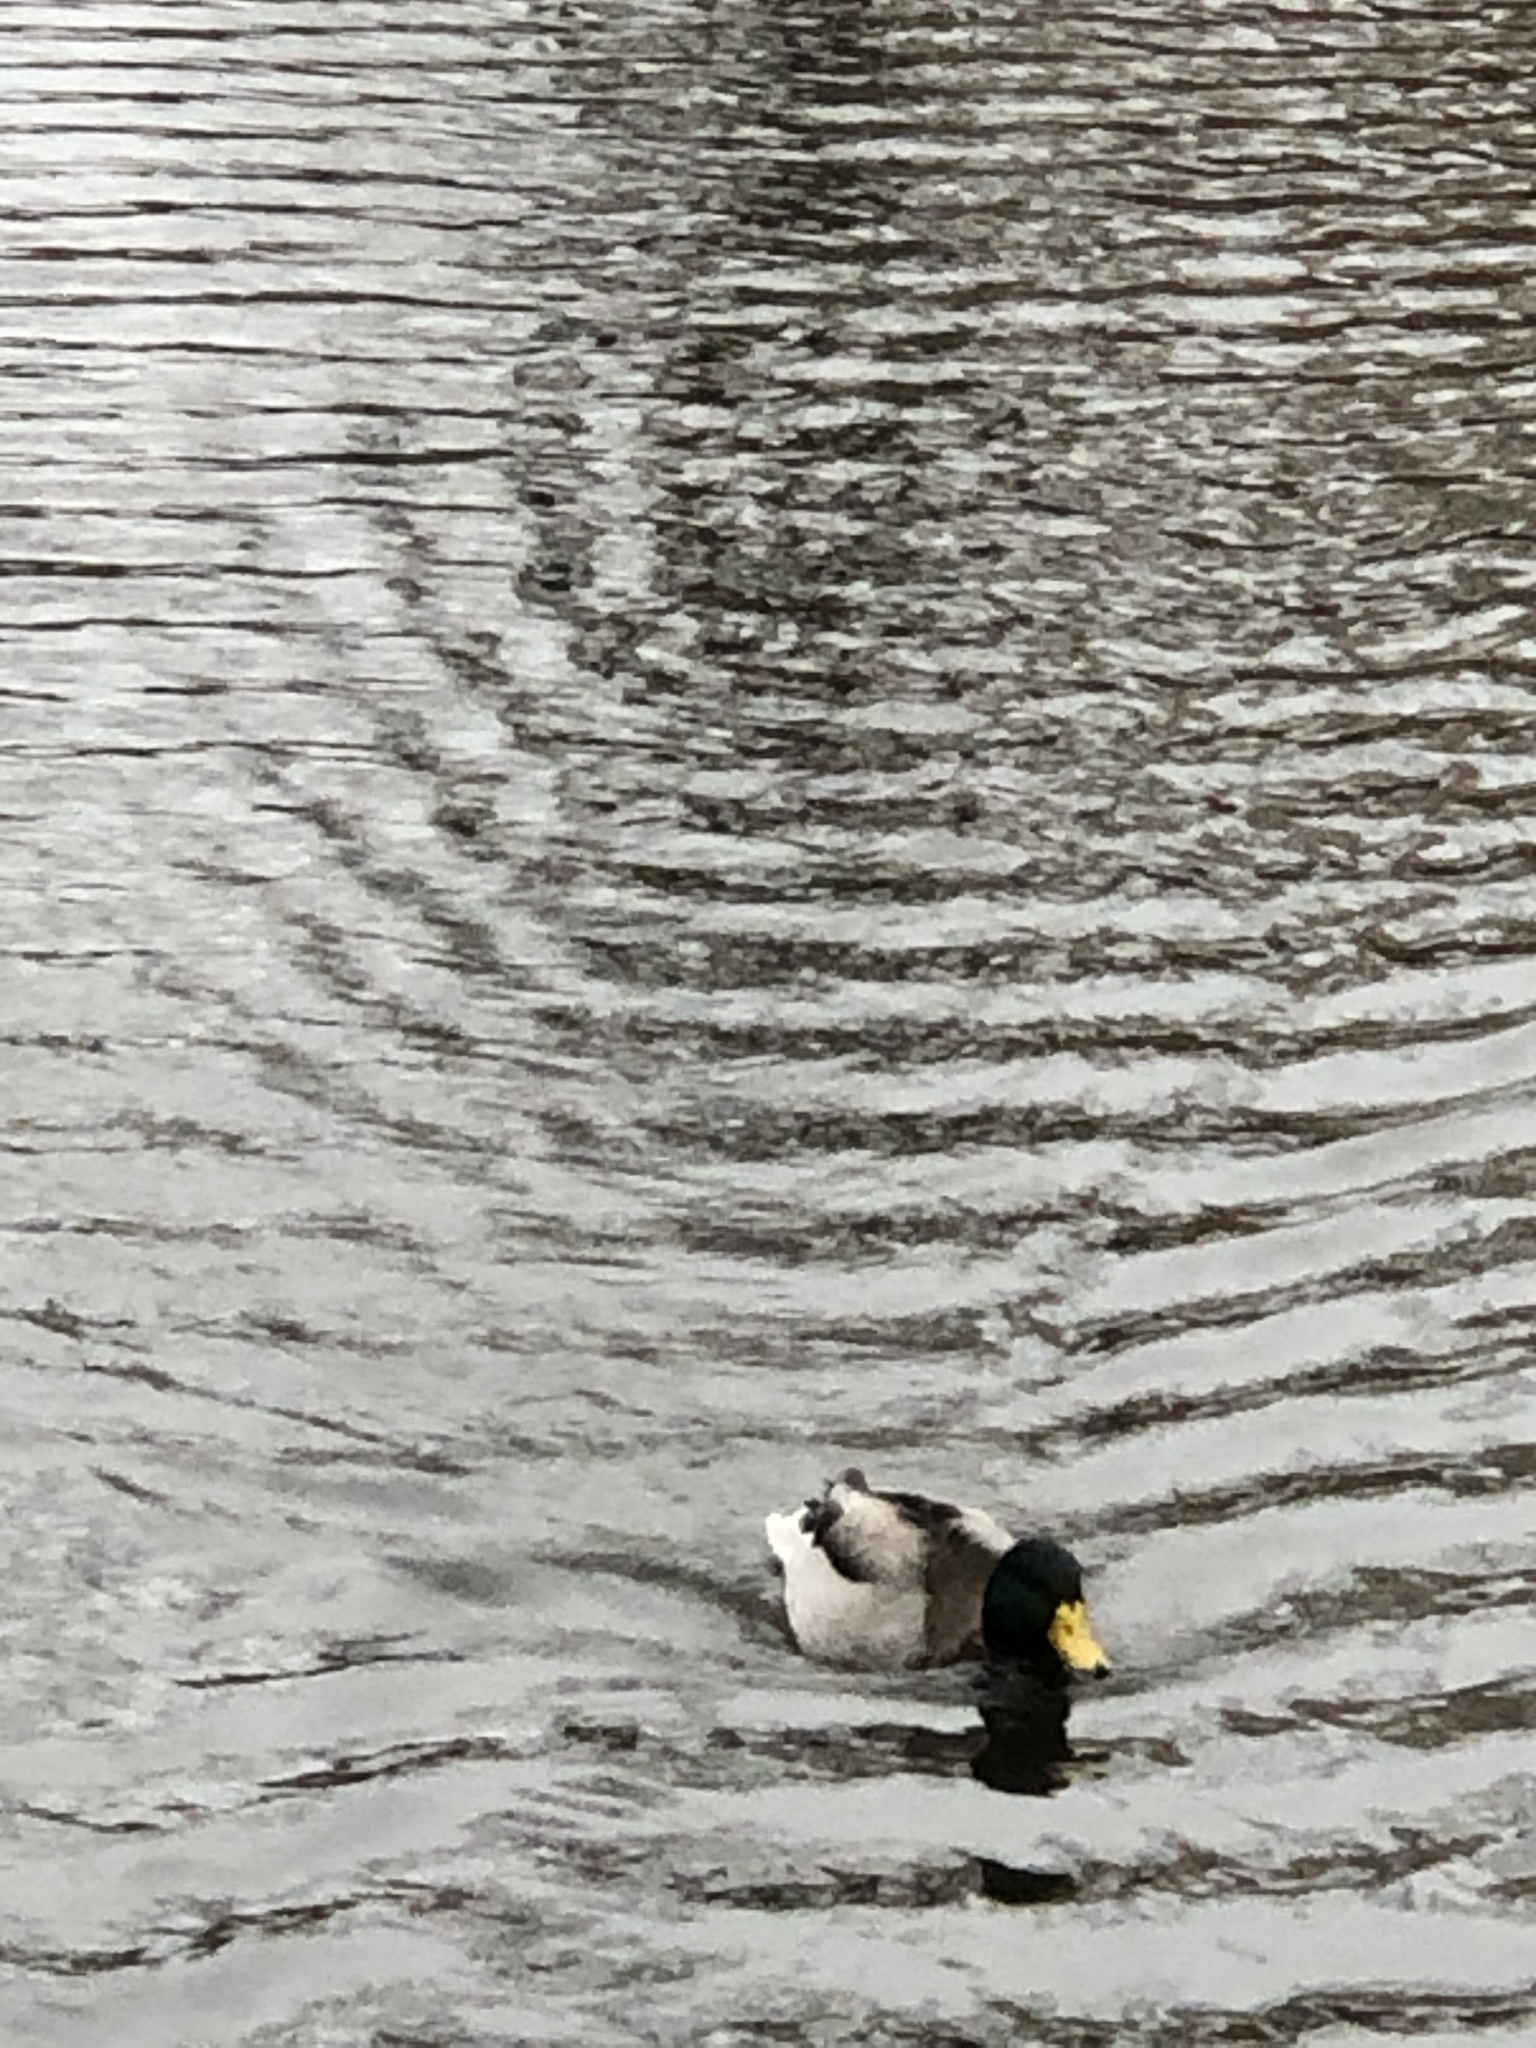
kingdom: Animalia
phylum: Chordata
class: Aves
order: Anseriformes
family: Anatidae
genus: Anas
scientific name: Anas platyrhynchos
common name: Mallard
